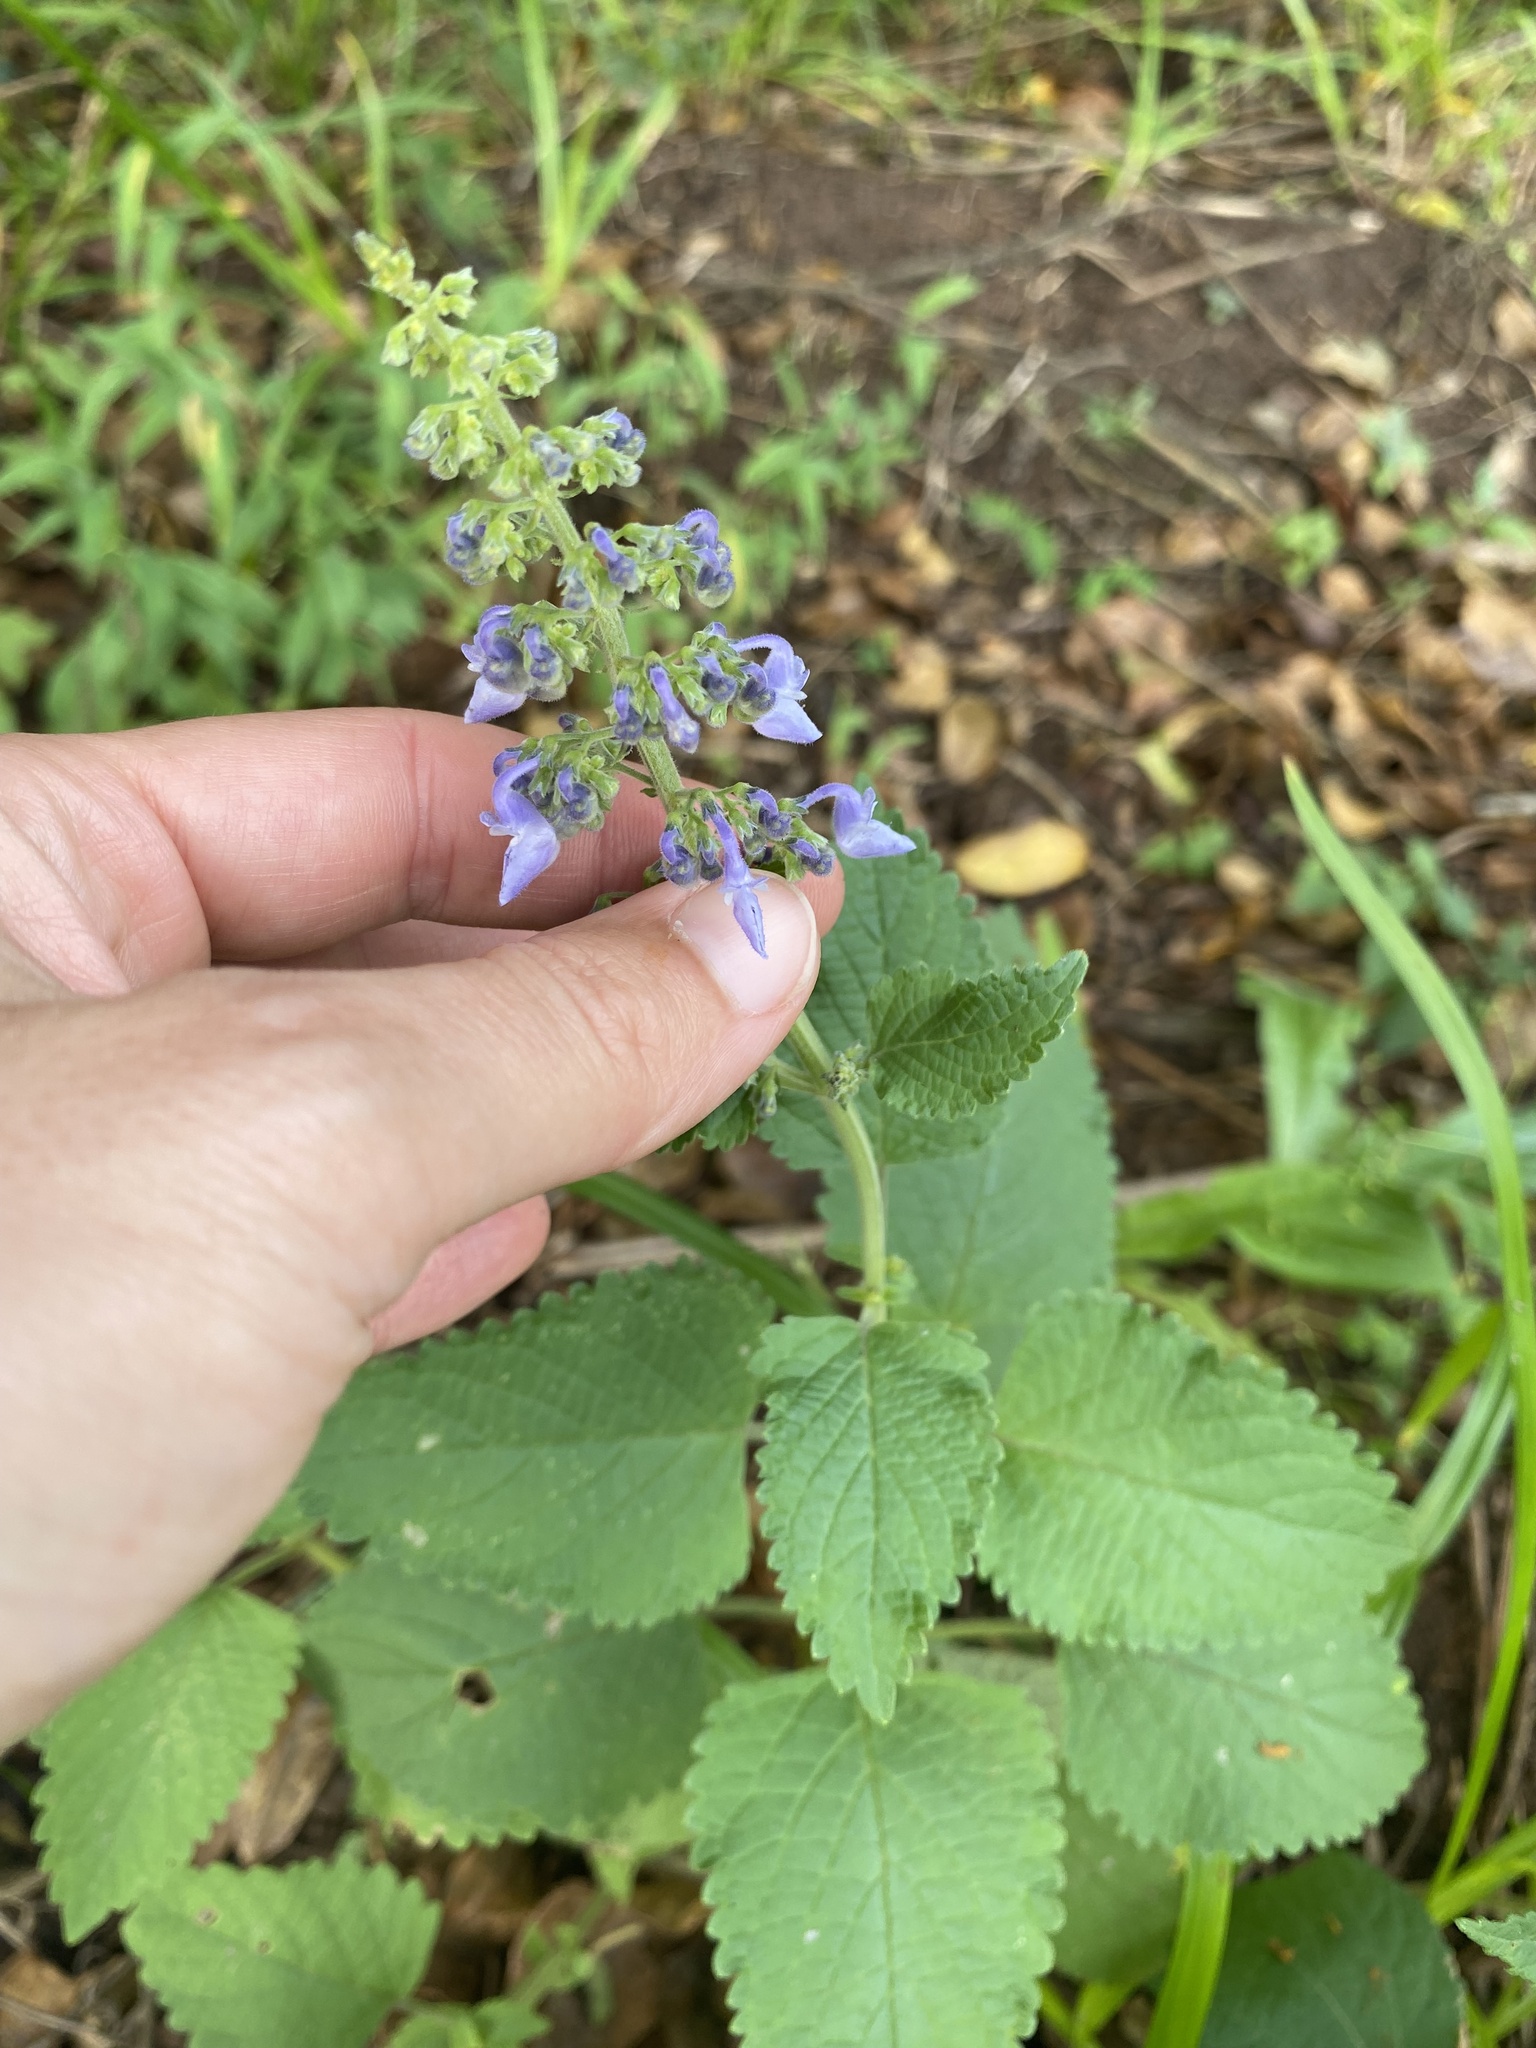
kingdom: Plantae
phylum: Tracheophyta
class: Magnoliopsida
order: Lamiales
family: Lamiaceae
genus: Coleus
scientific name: Coleus hereroensis
